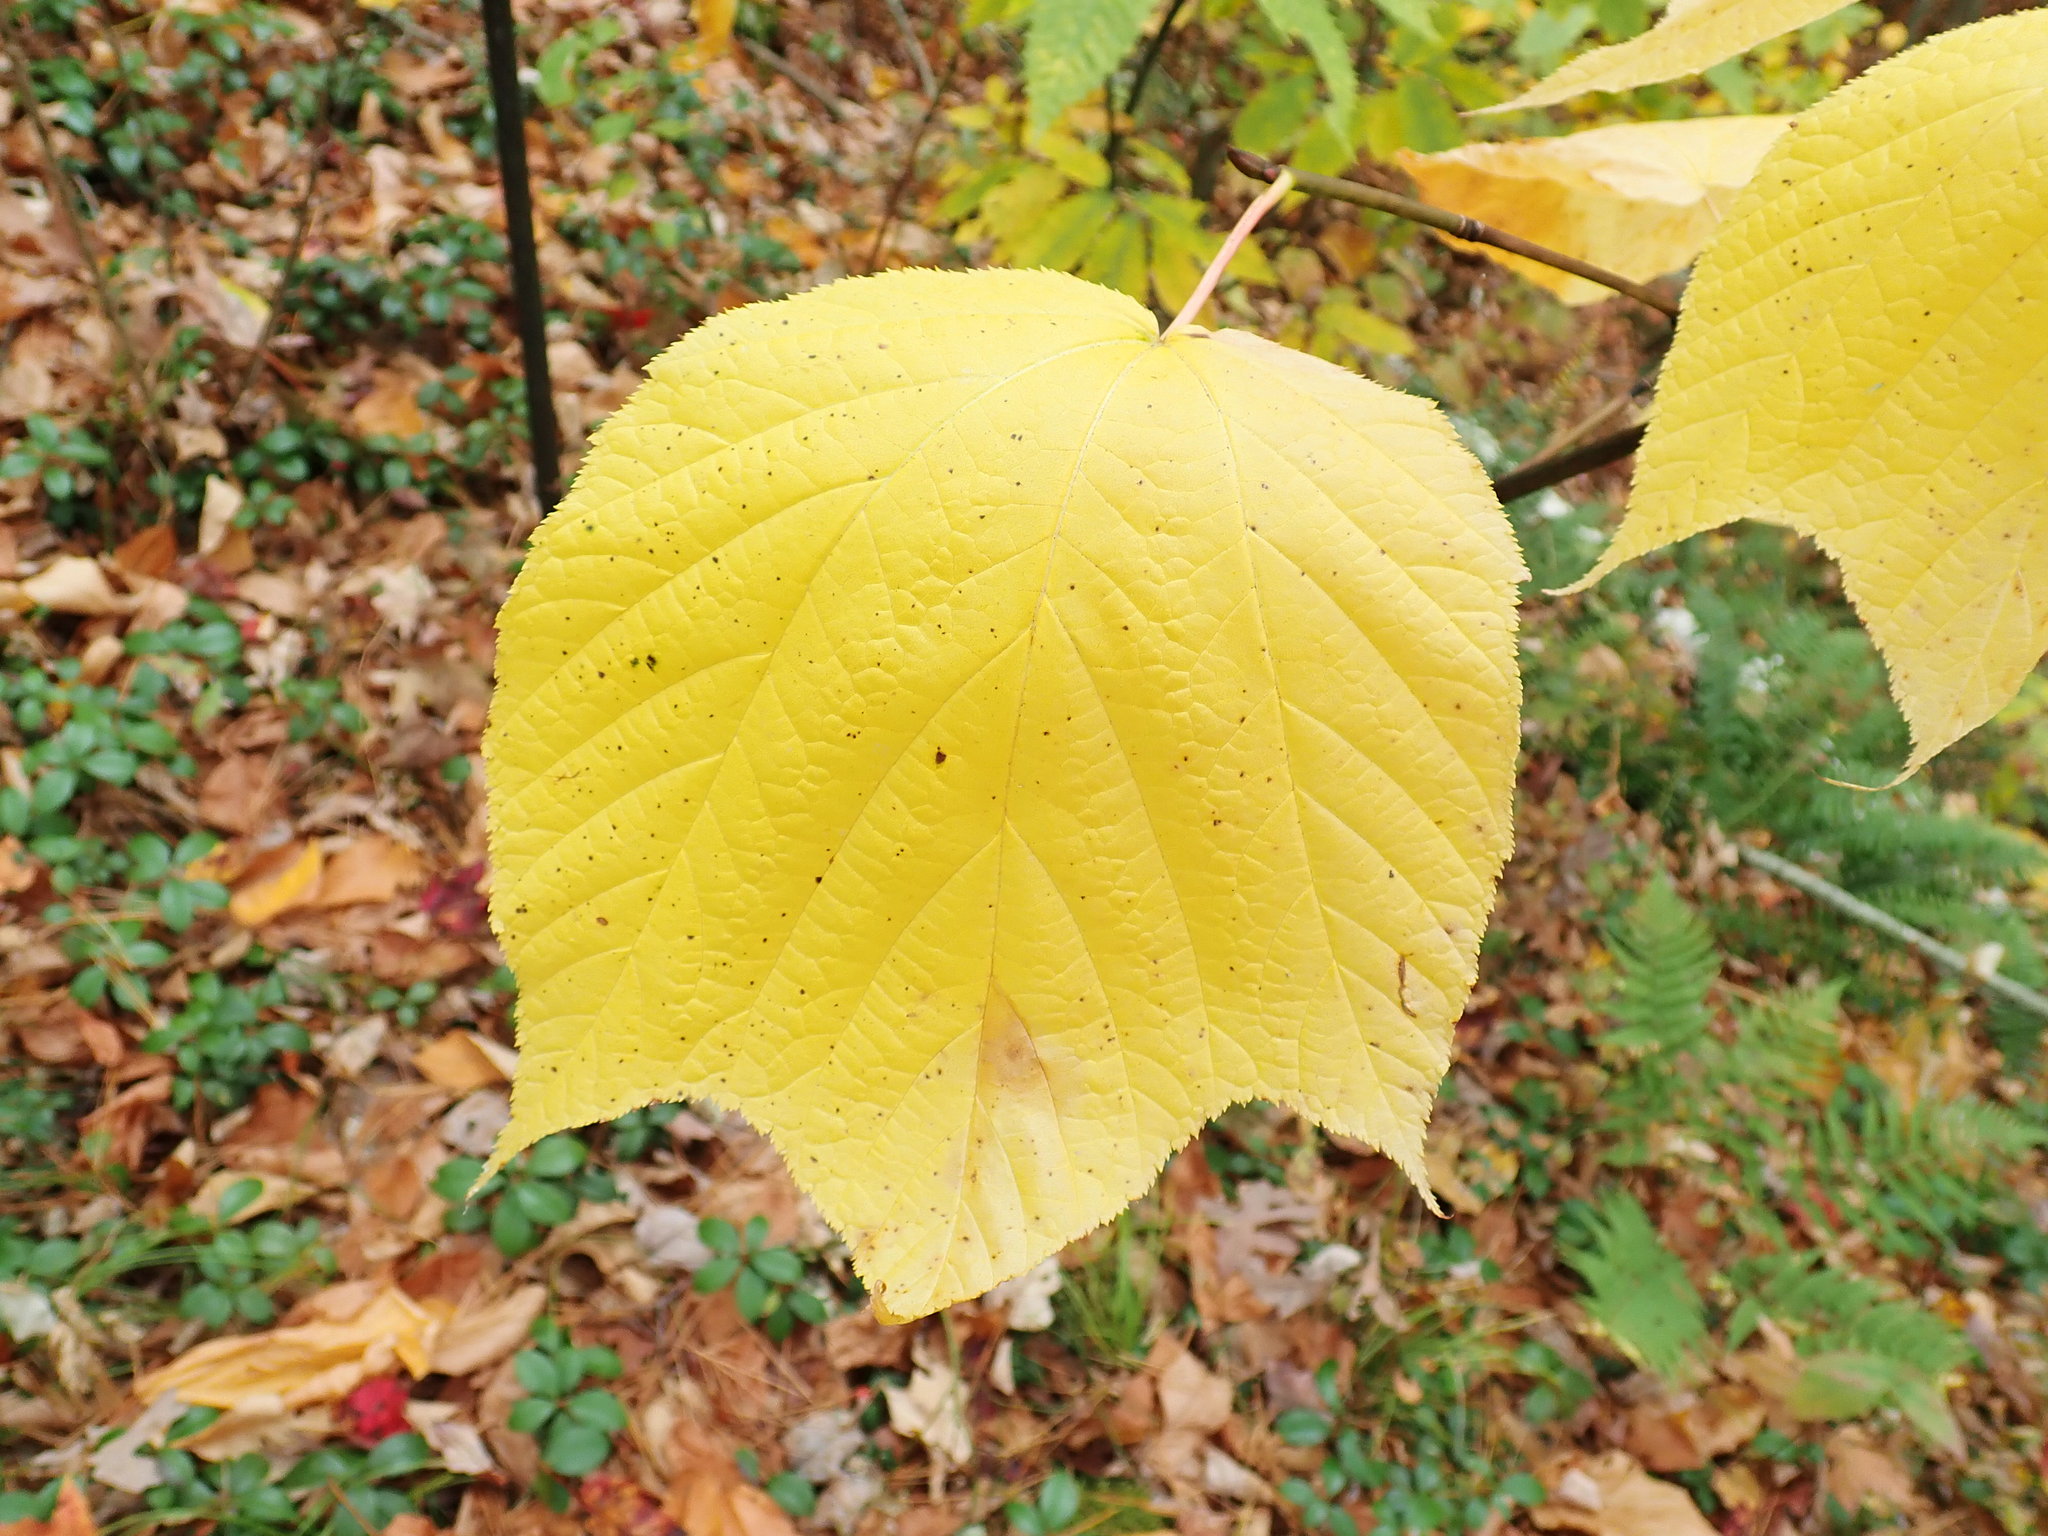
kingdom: Plantae
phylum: Tracheophyta
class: Magnoliopsida
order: Sapindales
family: Sapindaceae
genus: Acer
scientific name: Acer pensylvanicum
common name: Moosewood
